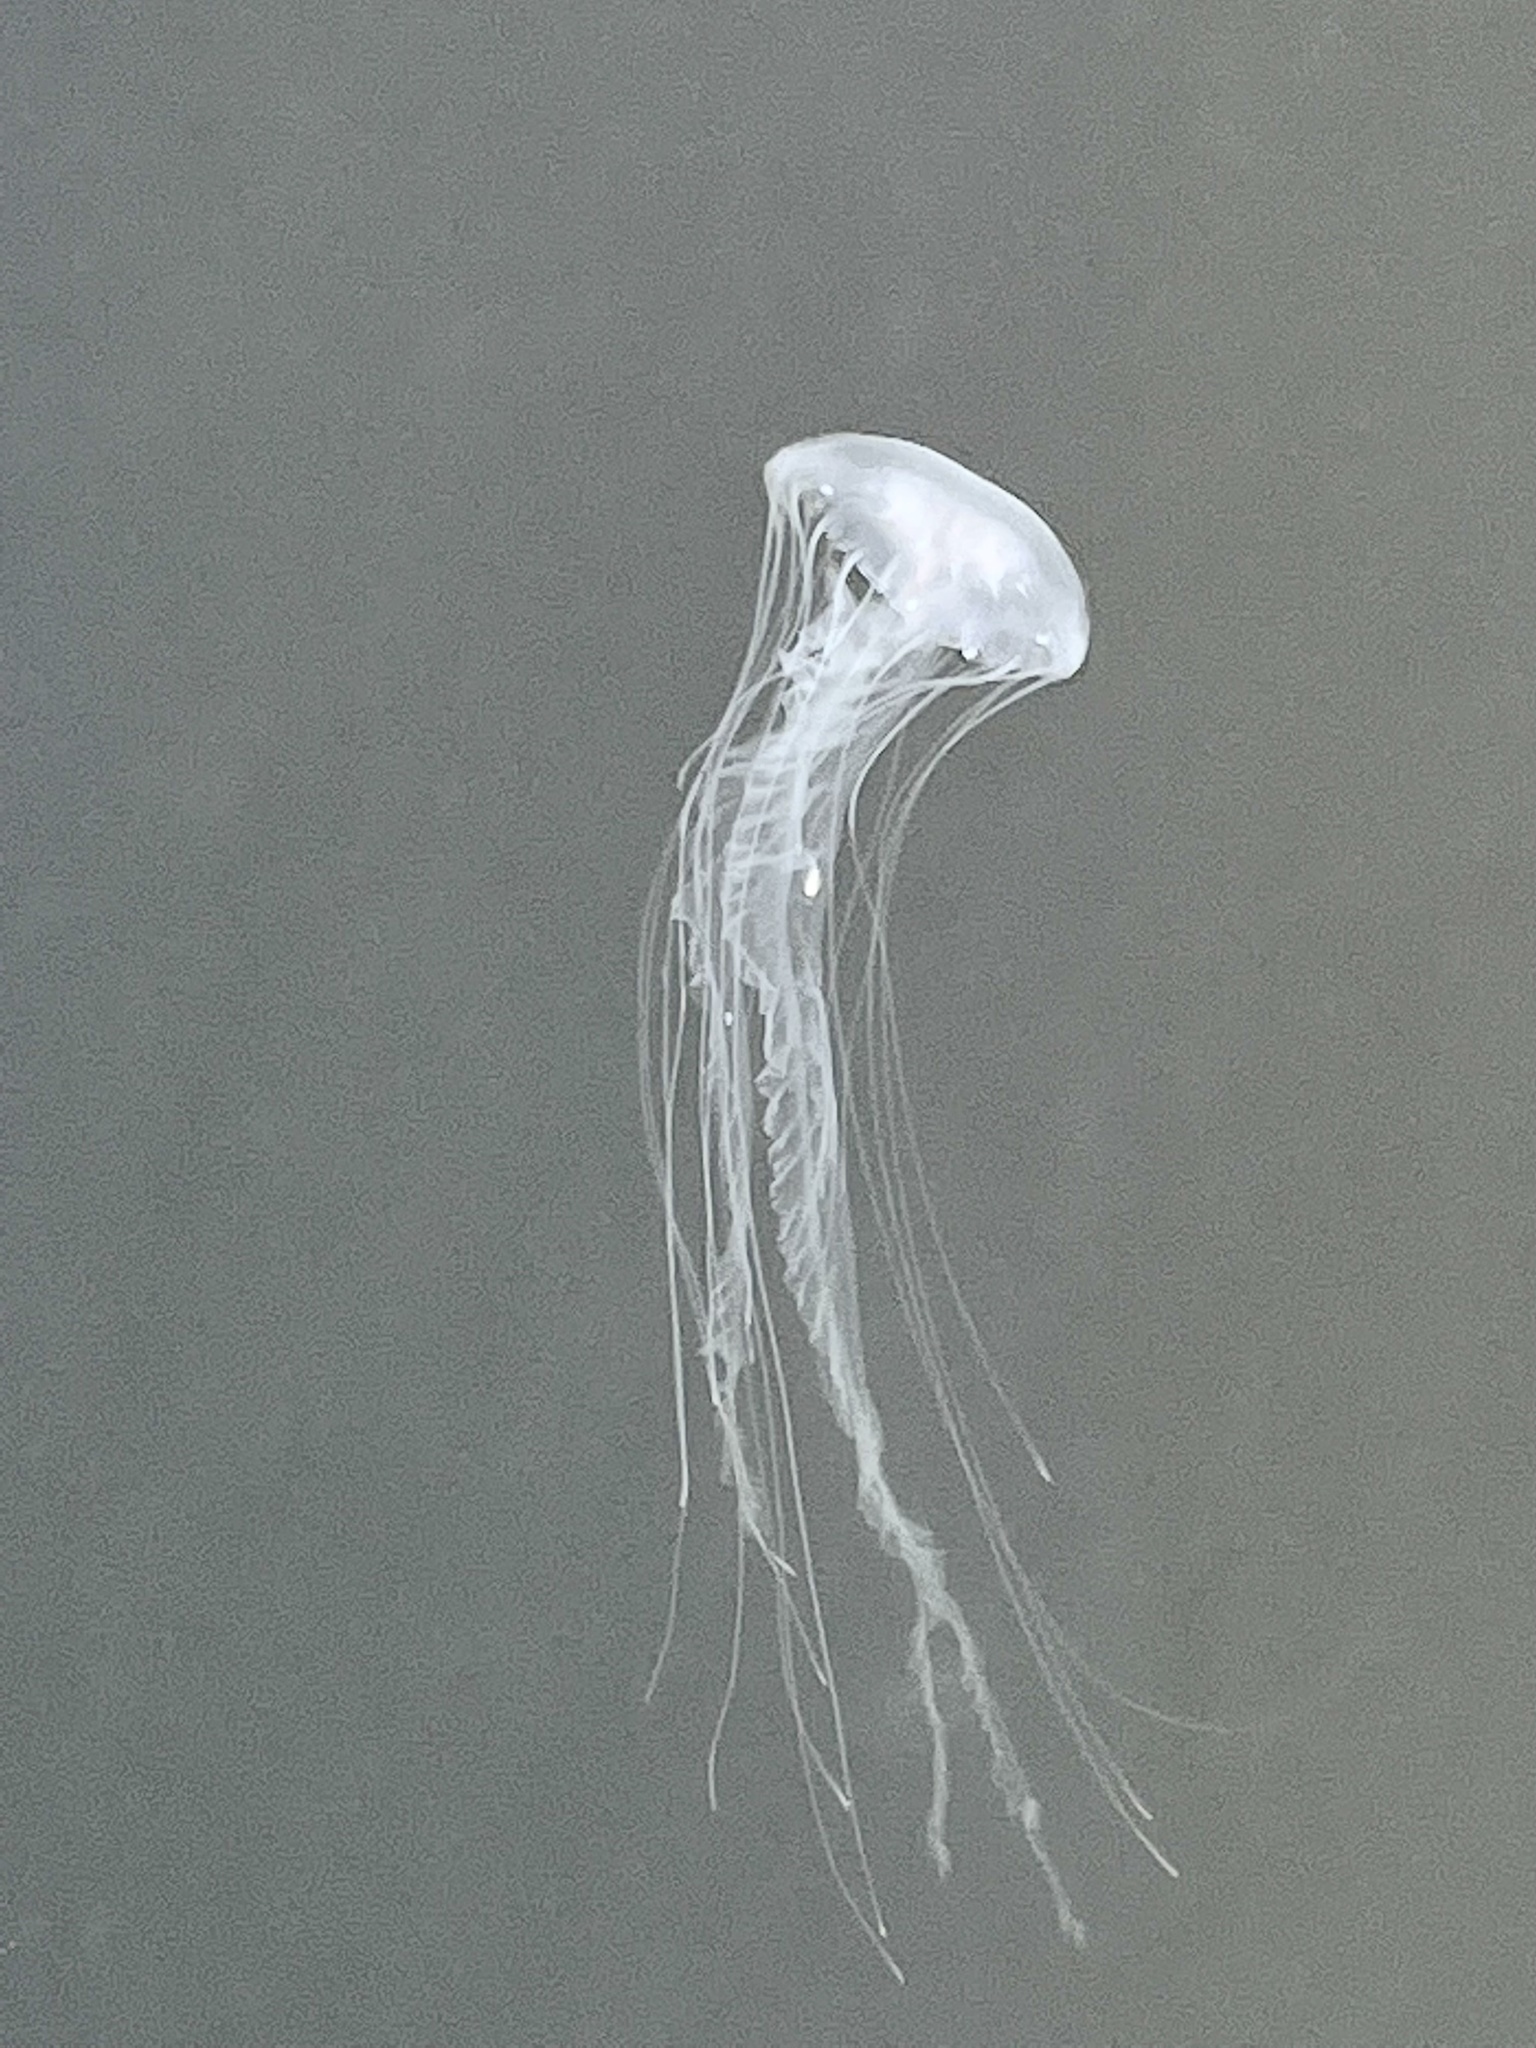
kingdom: Animalia
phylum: Cnidaria
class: Scyphozoa
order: Semaeostomeae
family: Pelagiidae
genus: Chrysaora
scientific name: Chrysaora chesapeakei
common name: Bay nettle
